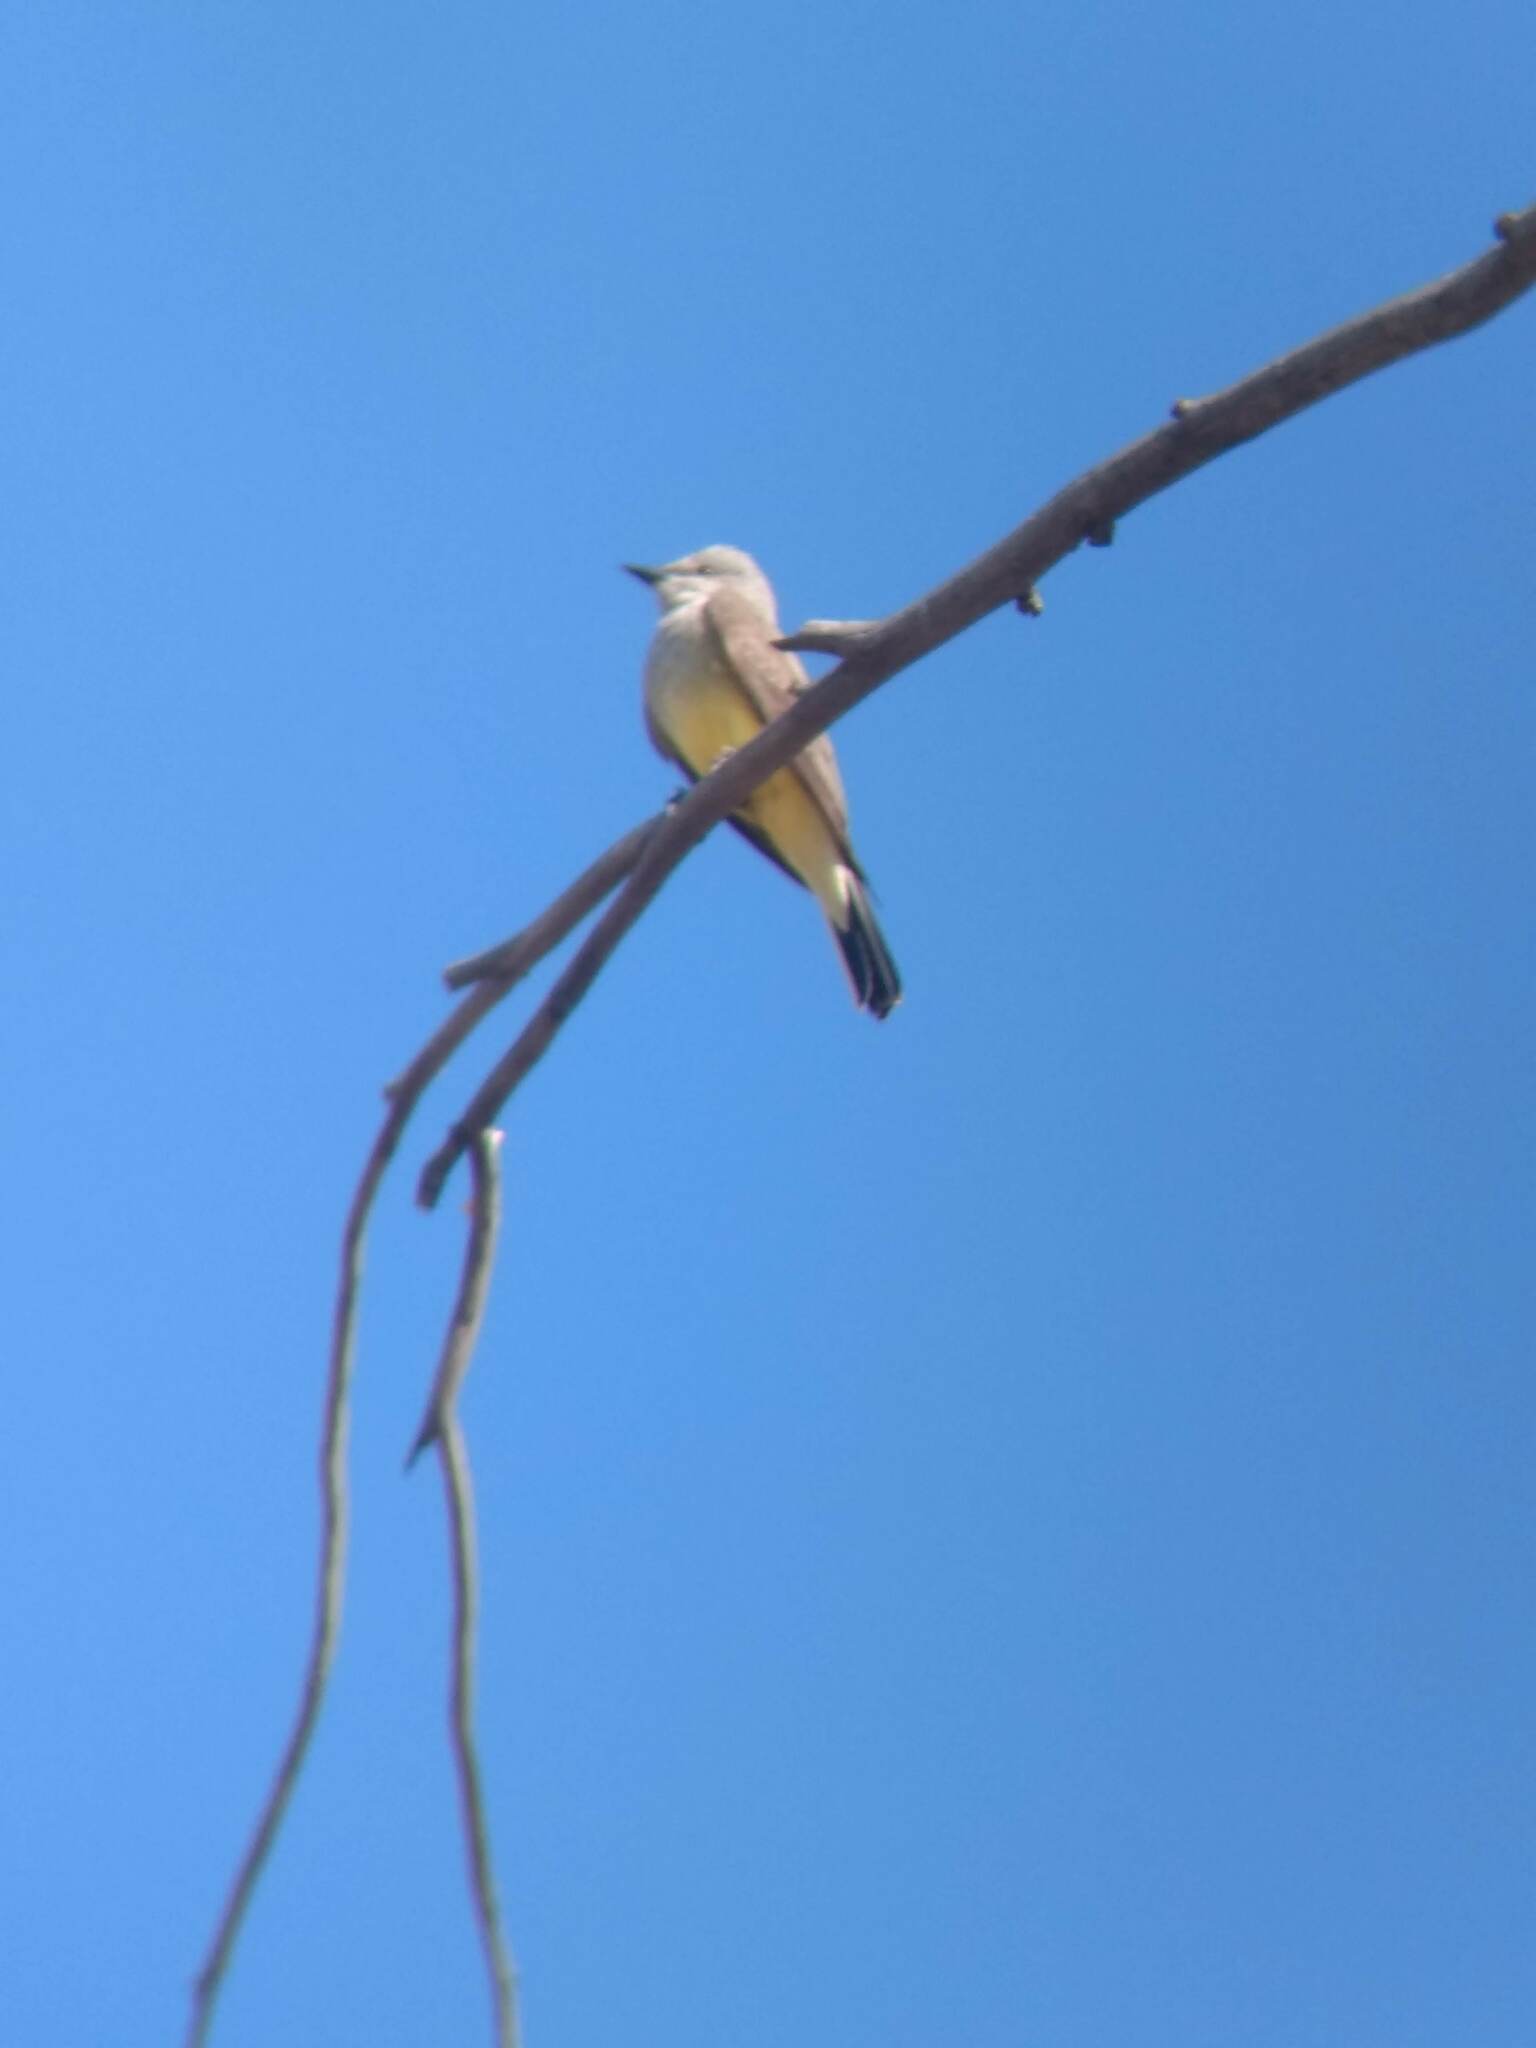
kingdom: Animalia
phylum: Chordata
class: Aves
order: Passeriformes
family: Tyrannidae
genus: Tyrannus
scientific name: Tyrannus verticalis
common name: Western kingbird
